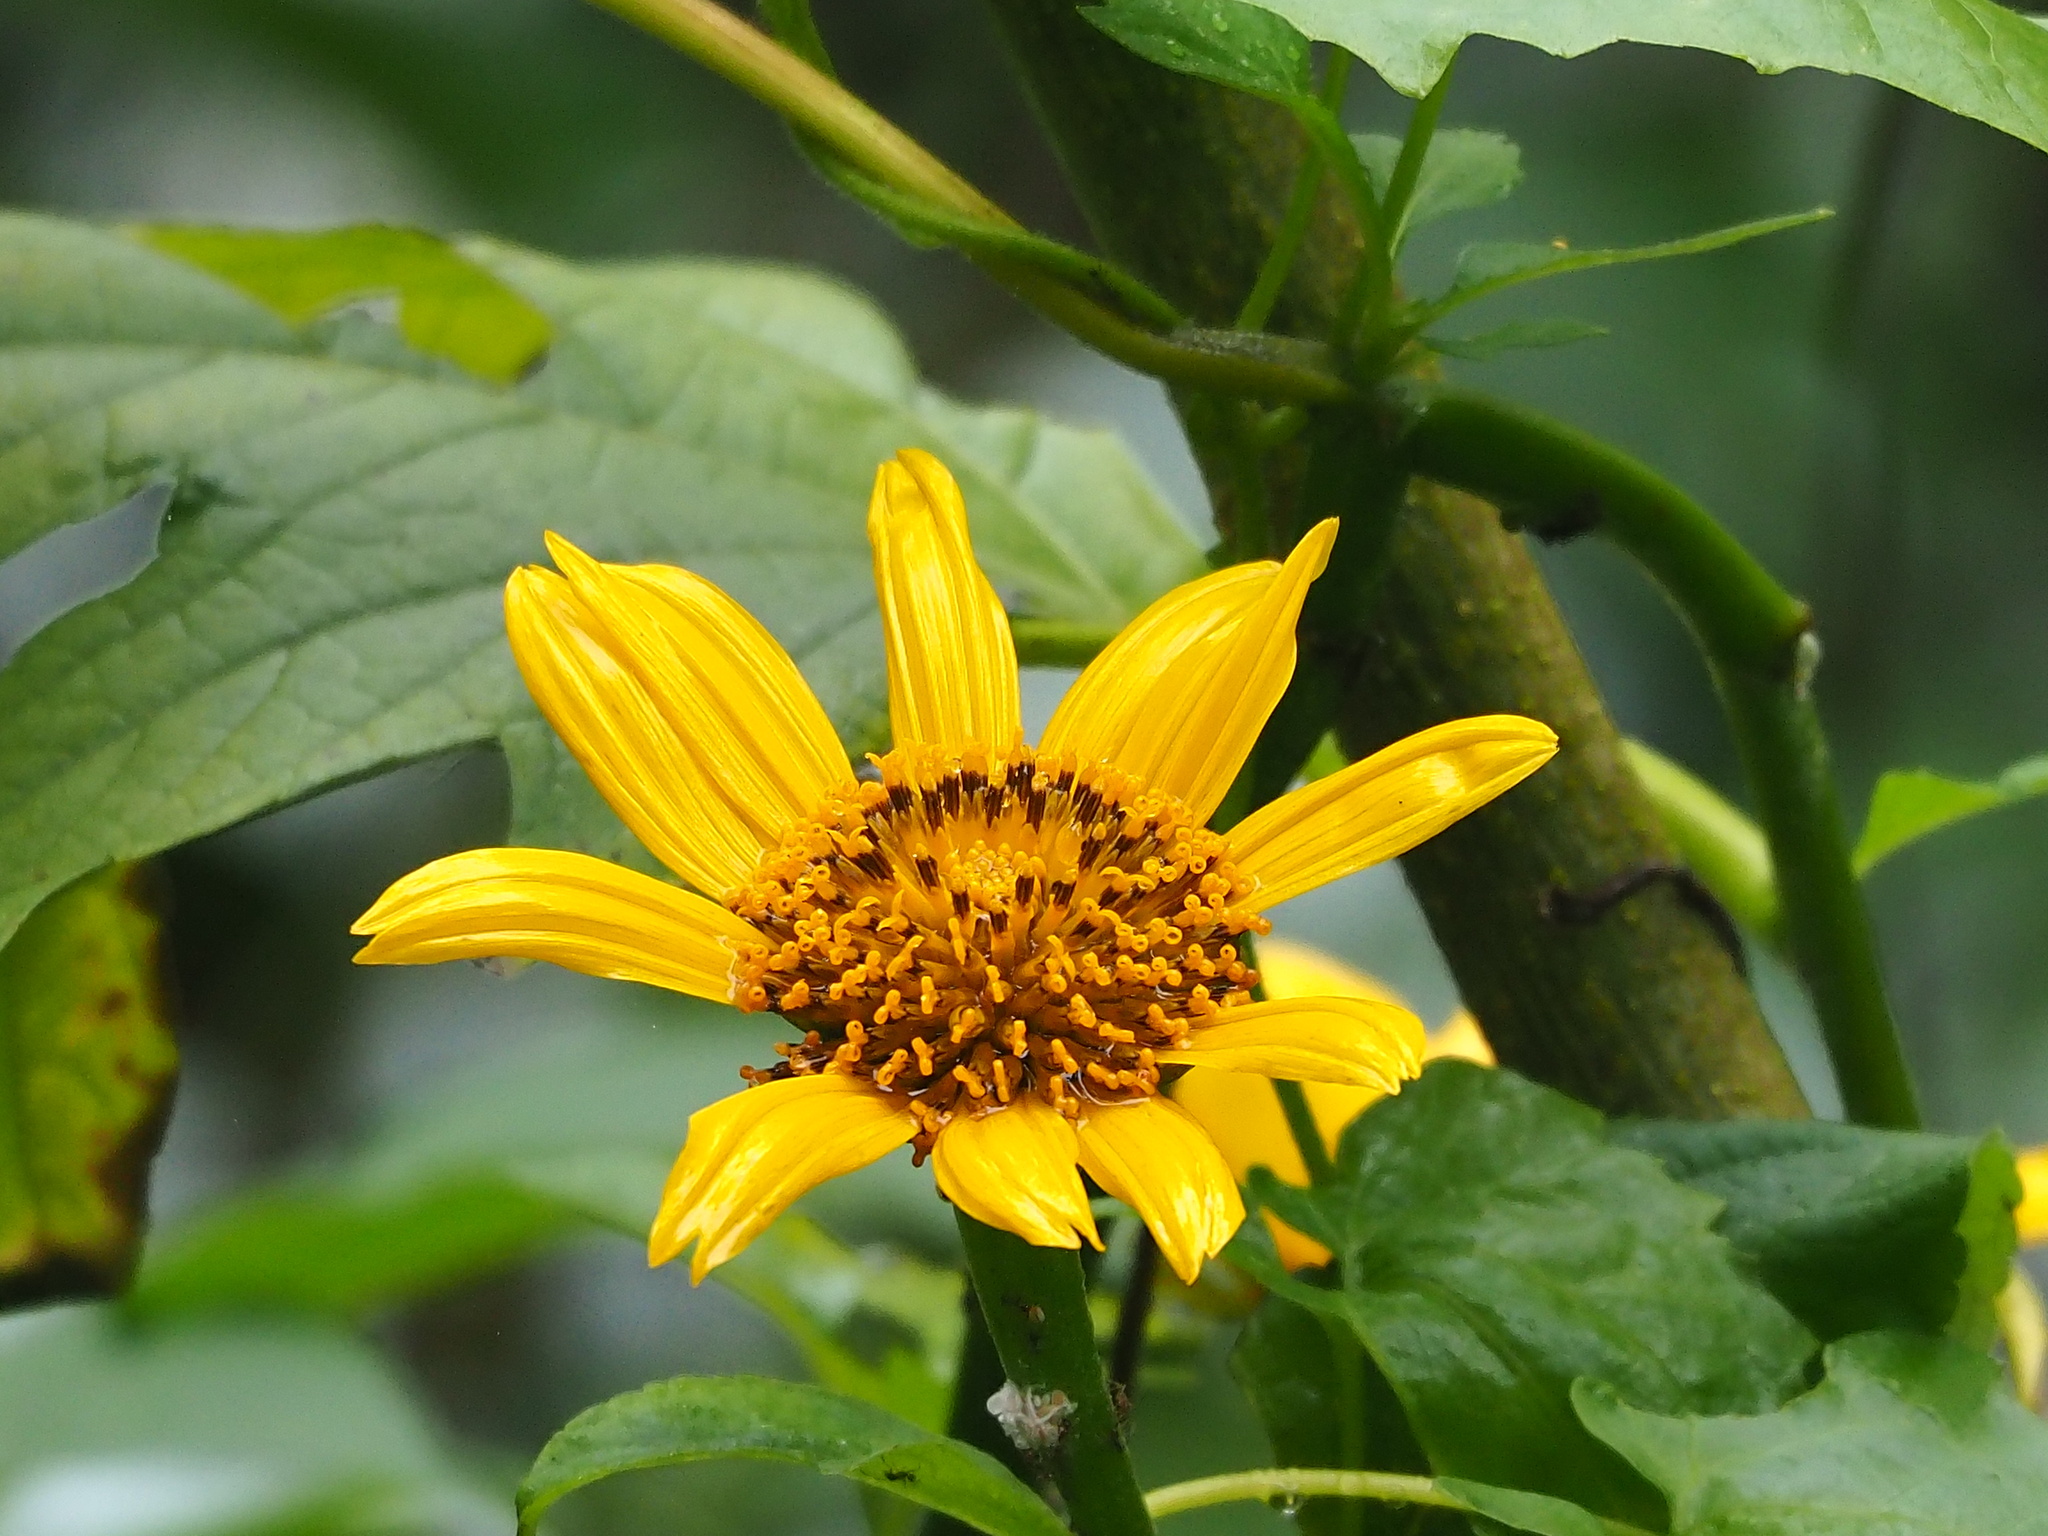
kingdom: Plantae
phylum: Tracheophyta
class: Magnoliopsida
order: Asterales
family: Asteraceae
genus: Tithonia
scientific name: Tithonia diversifolia
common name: Tree marigold
